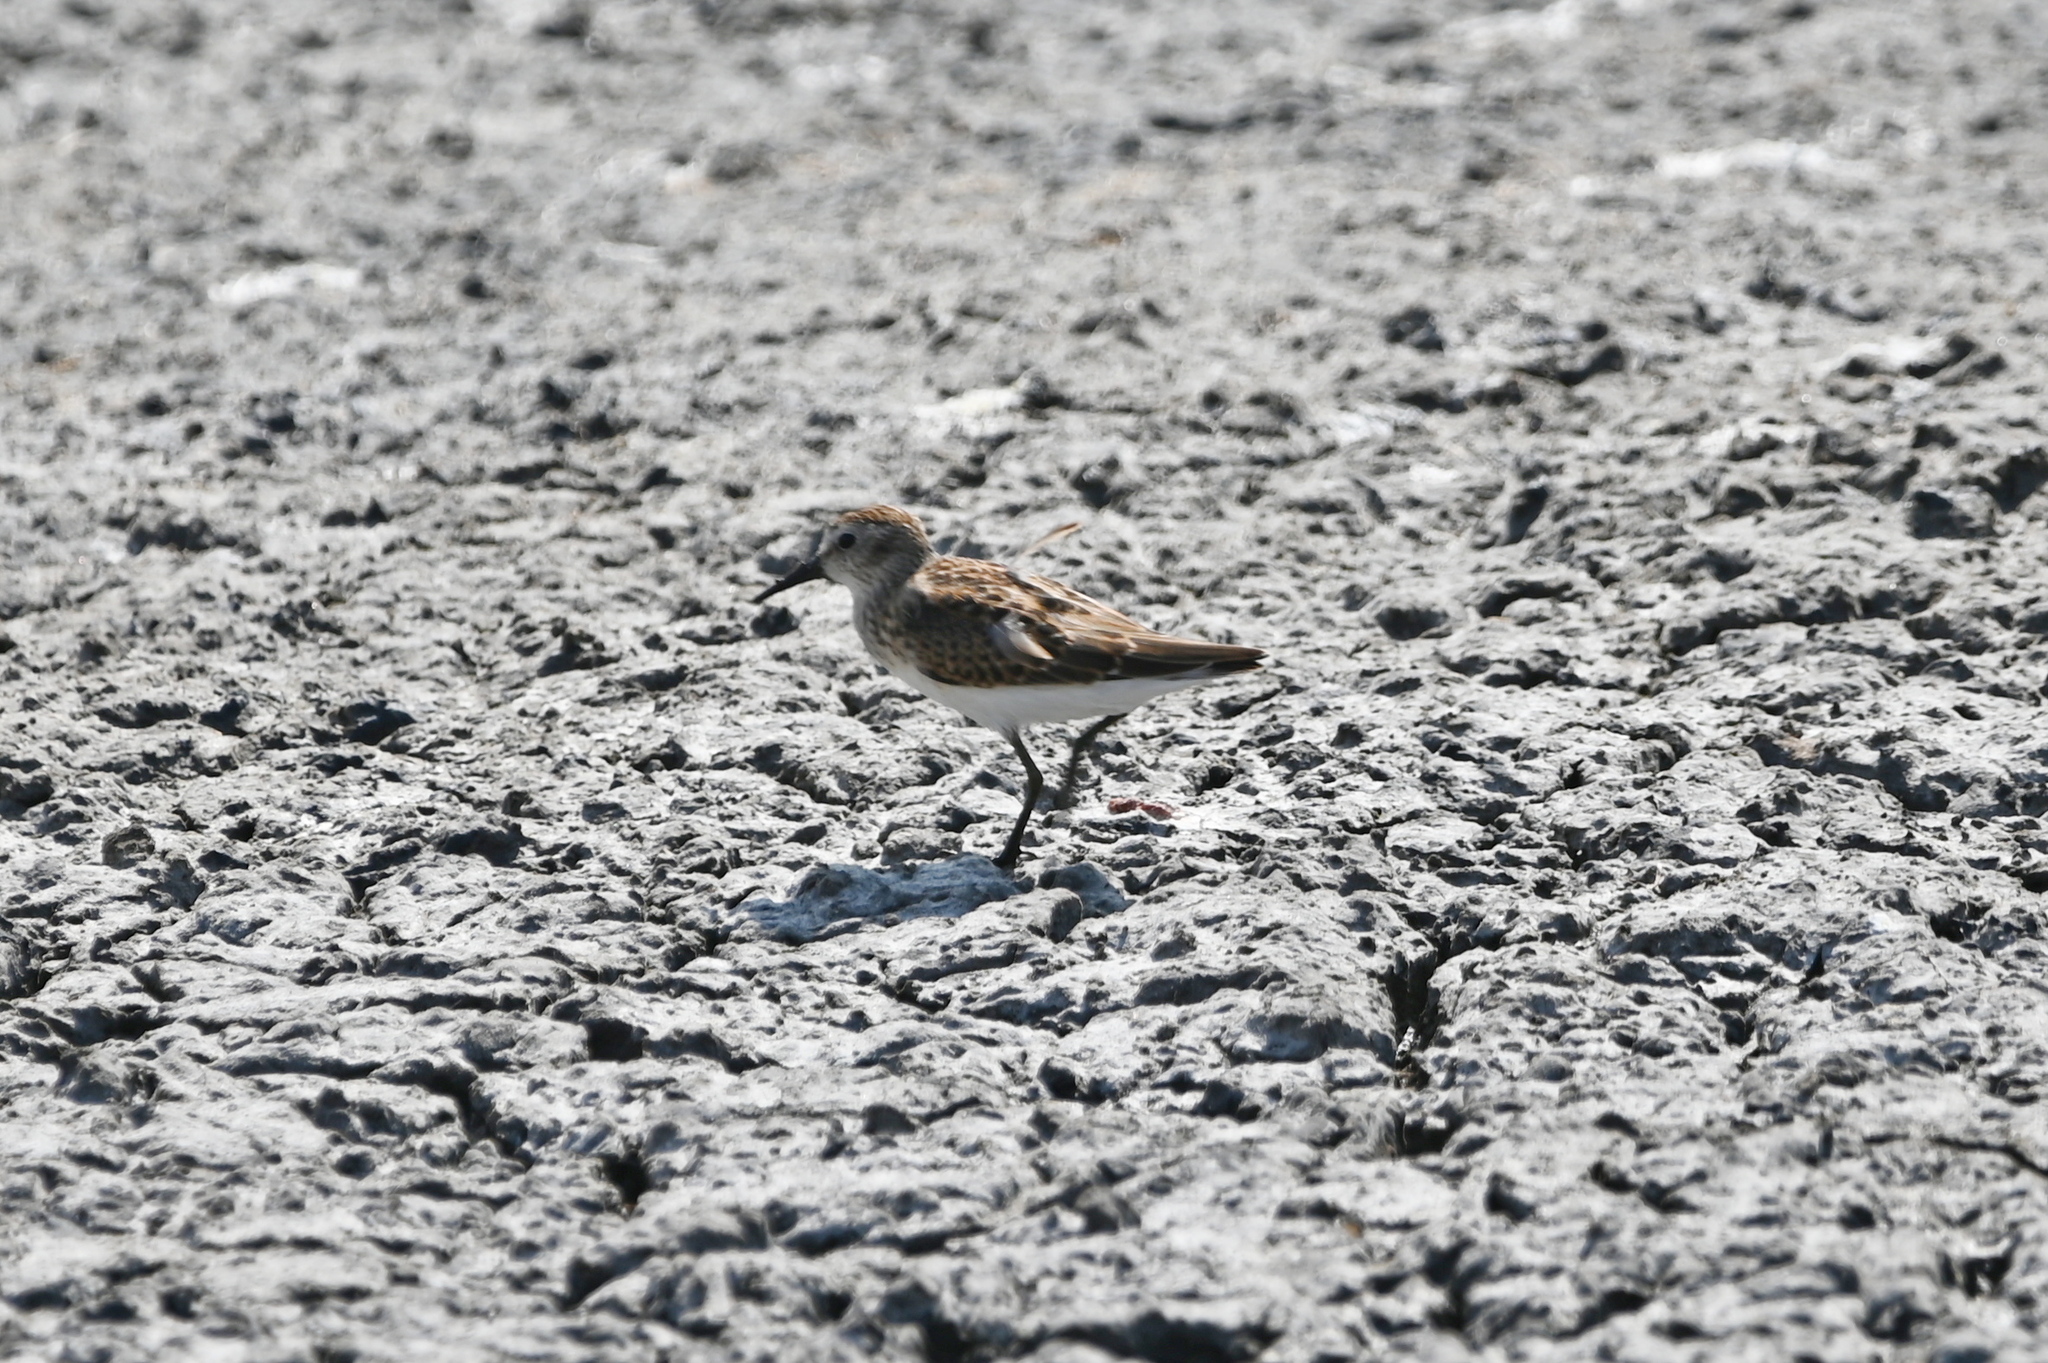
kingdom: Animalia
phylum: Chordata
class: Aves
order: Charadriiformes
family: Scolopacidae
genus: Calidris
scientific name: Calidris minutilla
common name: Least sandpiper
